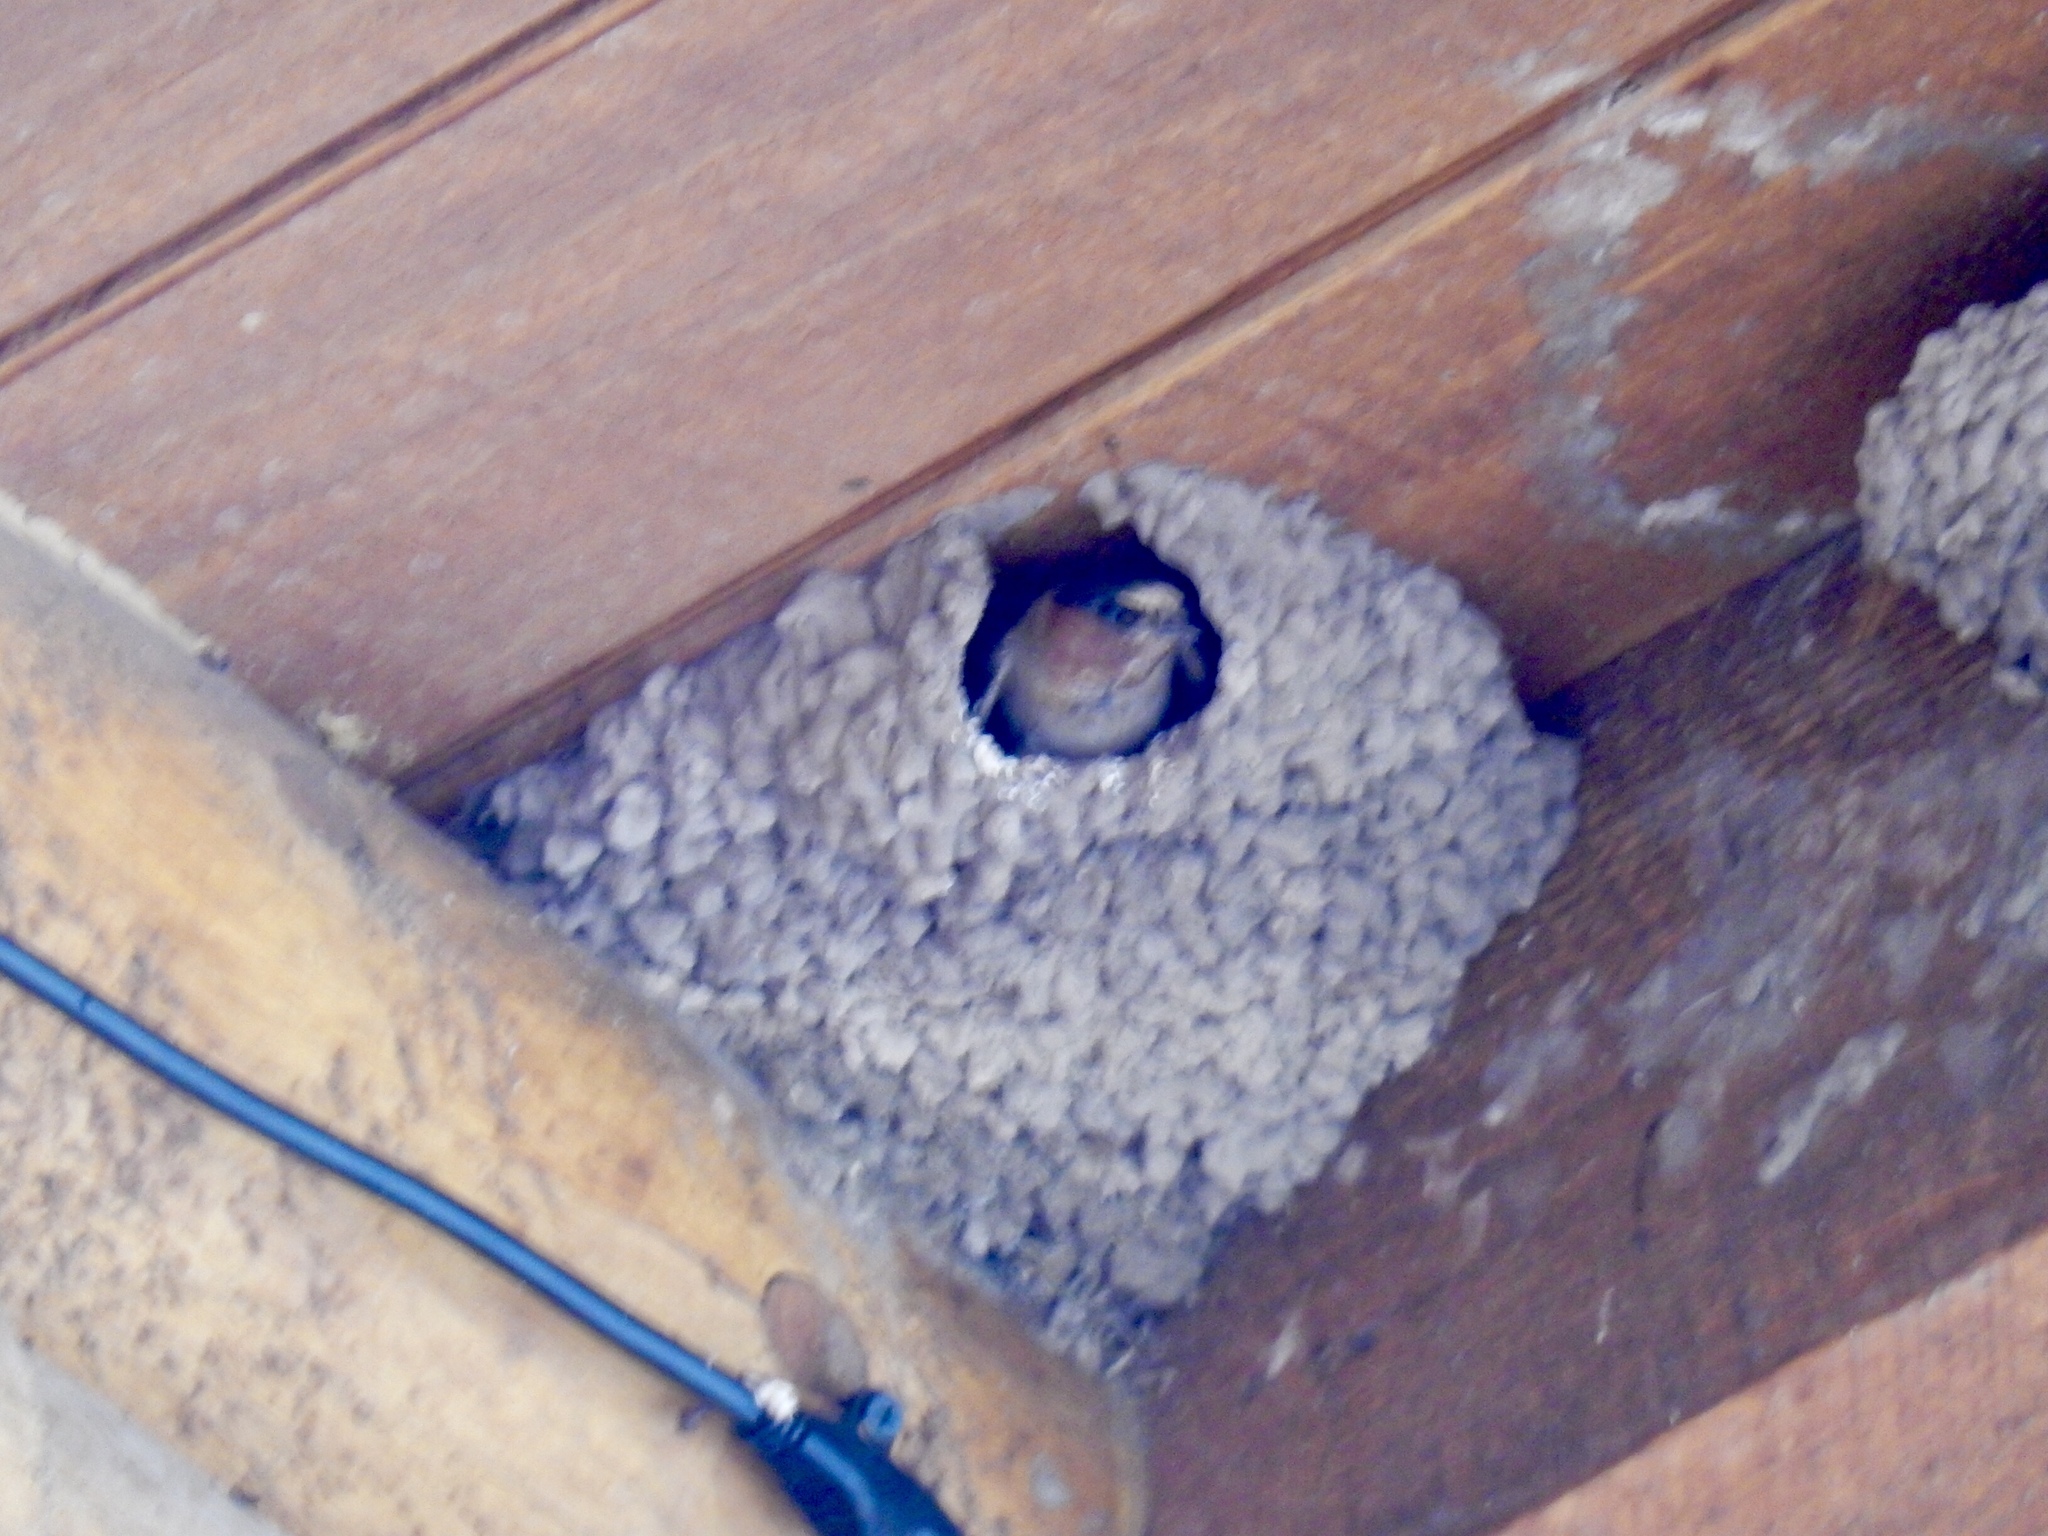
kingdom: Animalia
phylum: Chordata
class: Aves
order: Passeriformes
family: Hirundinidae
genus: Petrochelidon
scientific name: Petrochelidon pyrrhonota
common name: American cliff swallow
